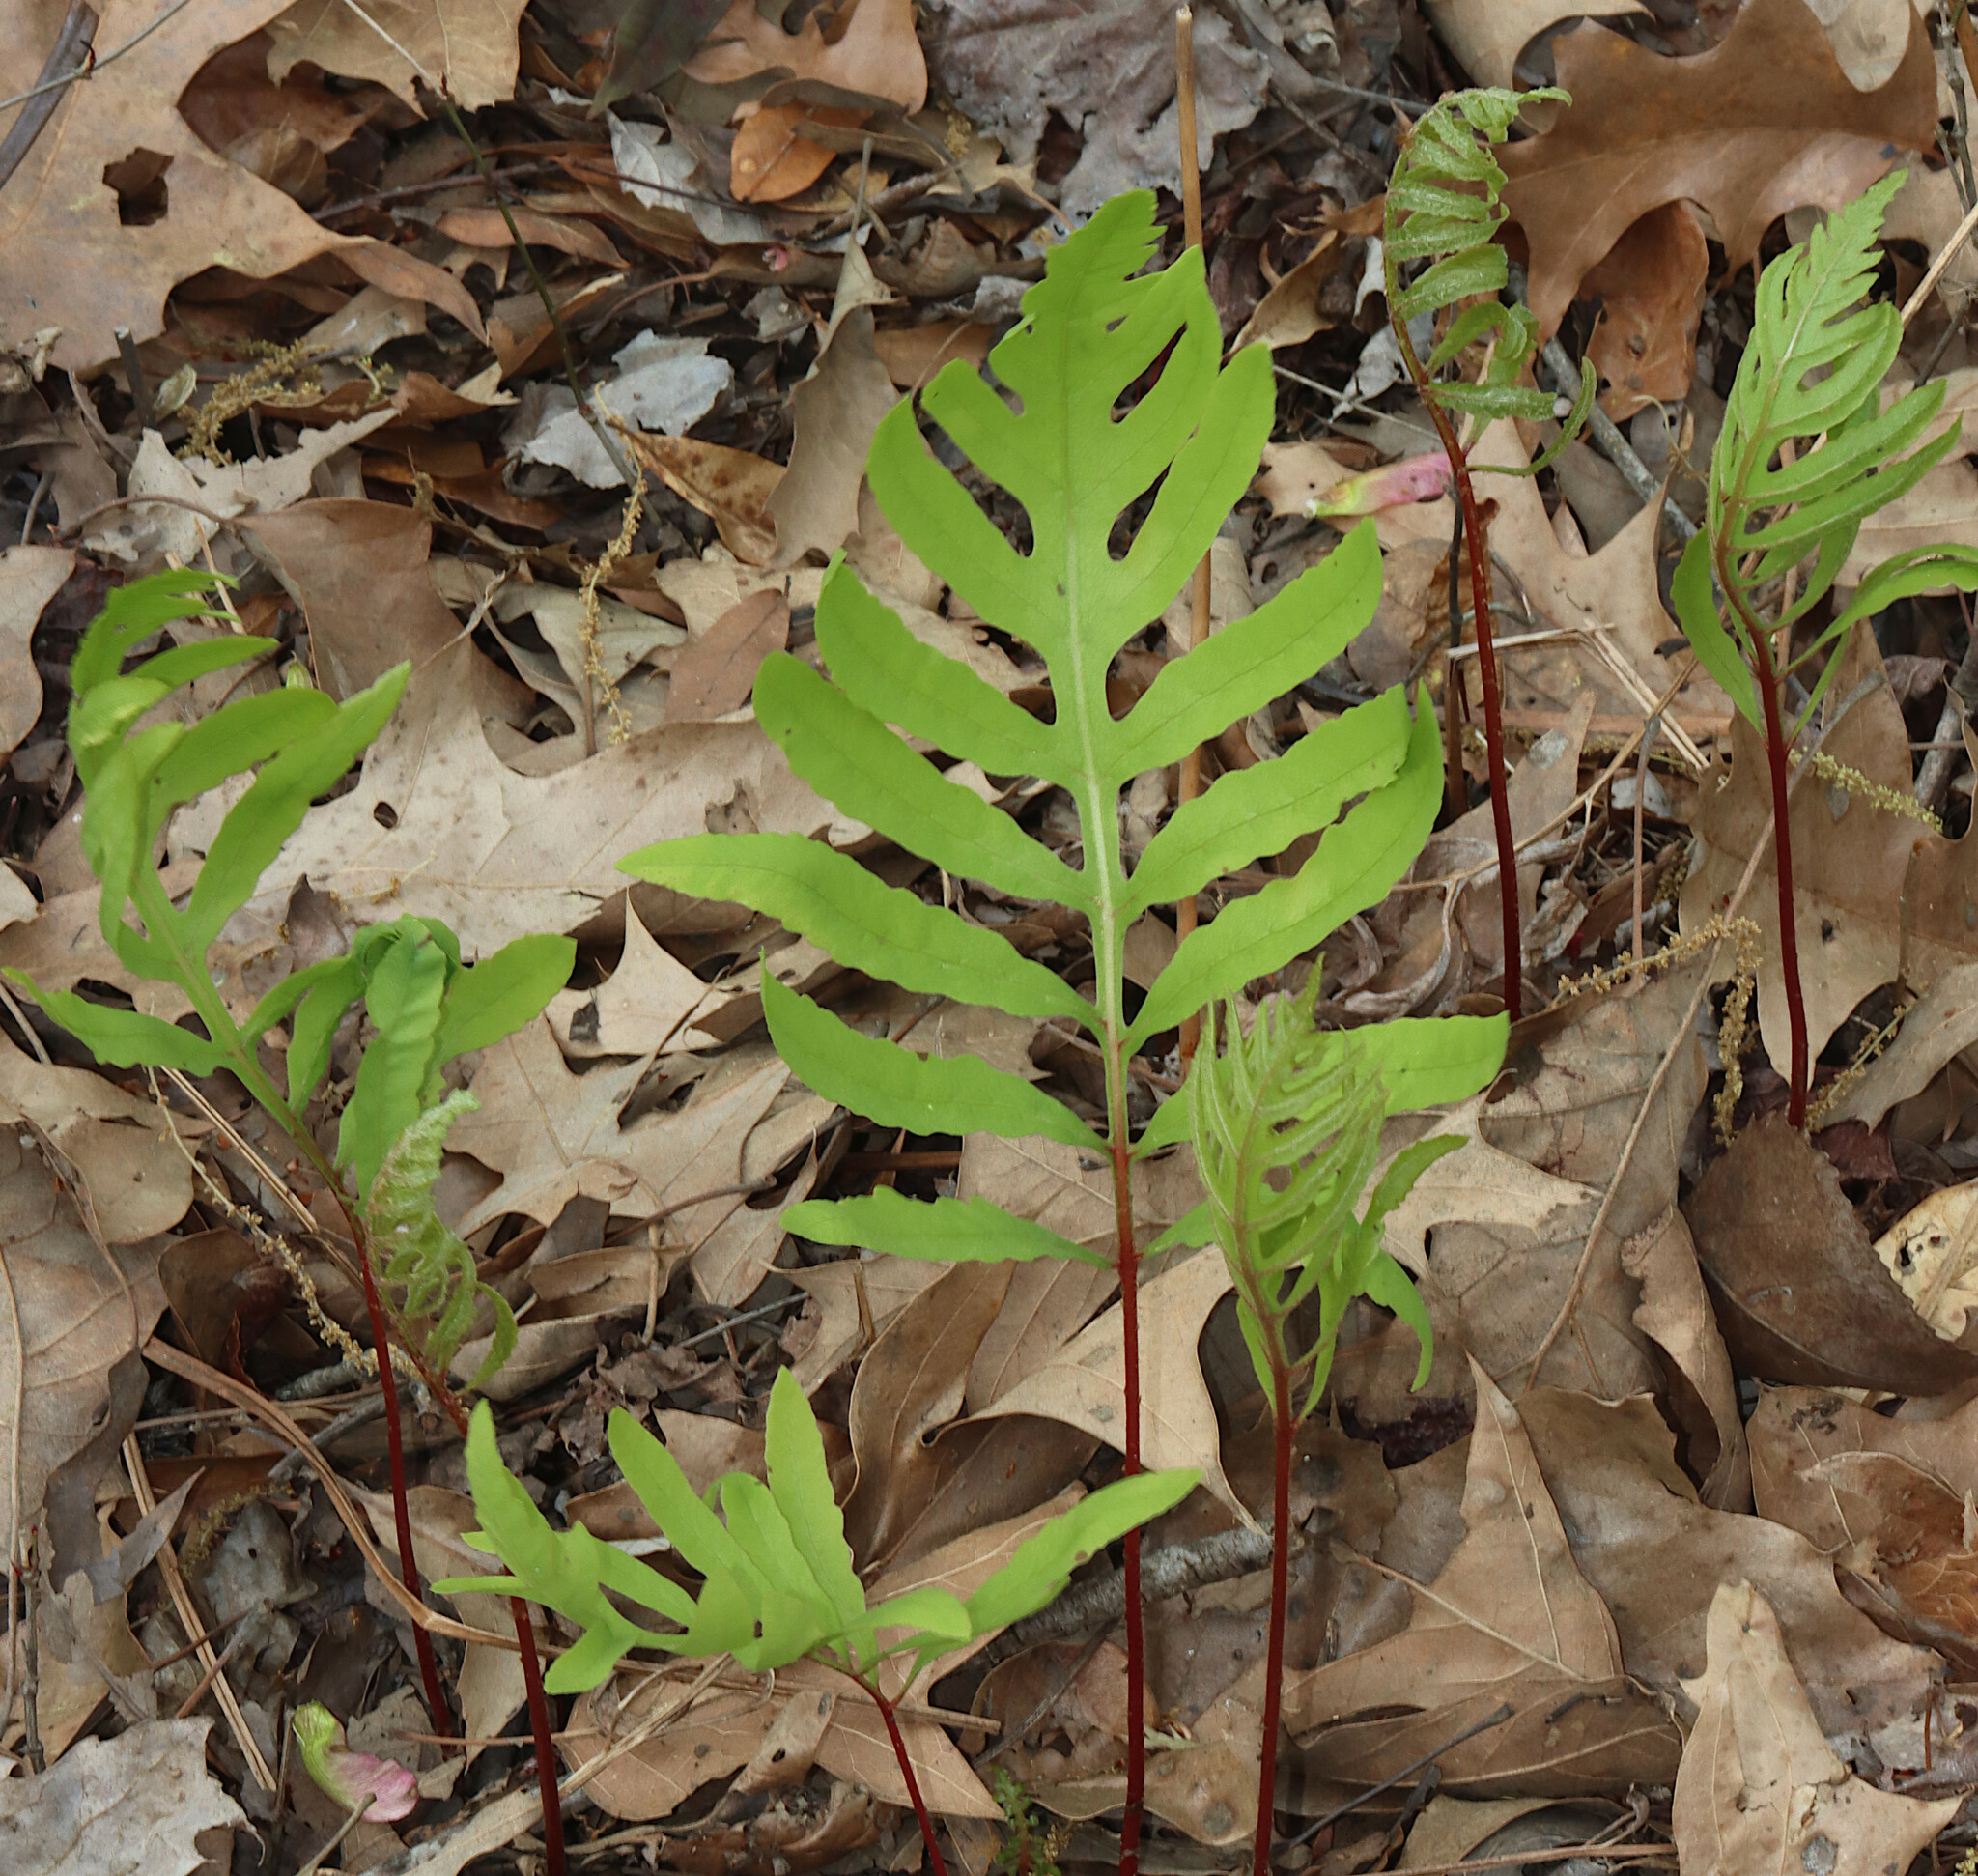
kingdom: Plantae
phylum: Tracheophyta
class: Polypodiopsida
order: Polypodiales
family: Onocleaceae
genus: Onoclea
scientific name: Onoclea sensibilis
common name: Sensitive fern
